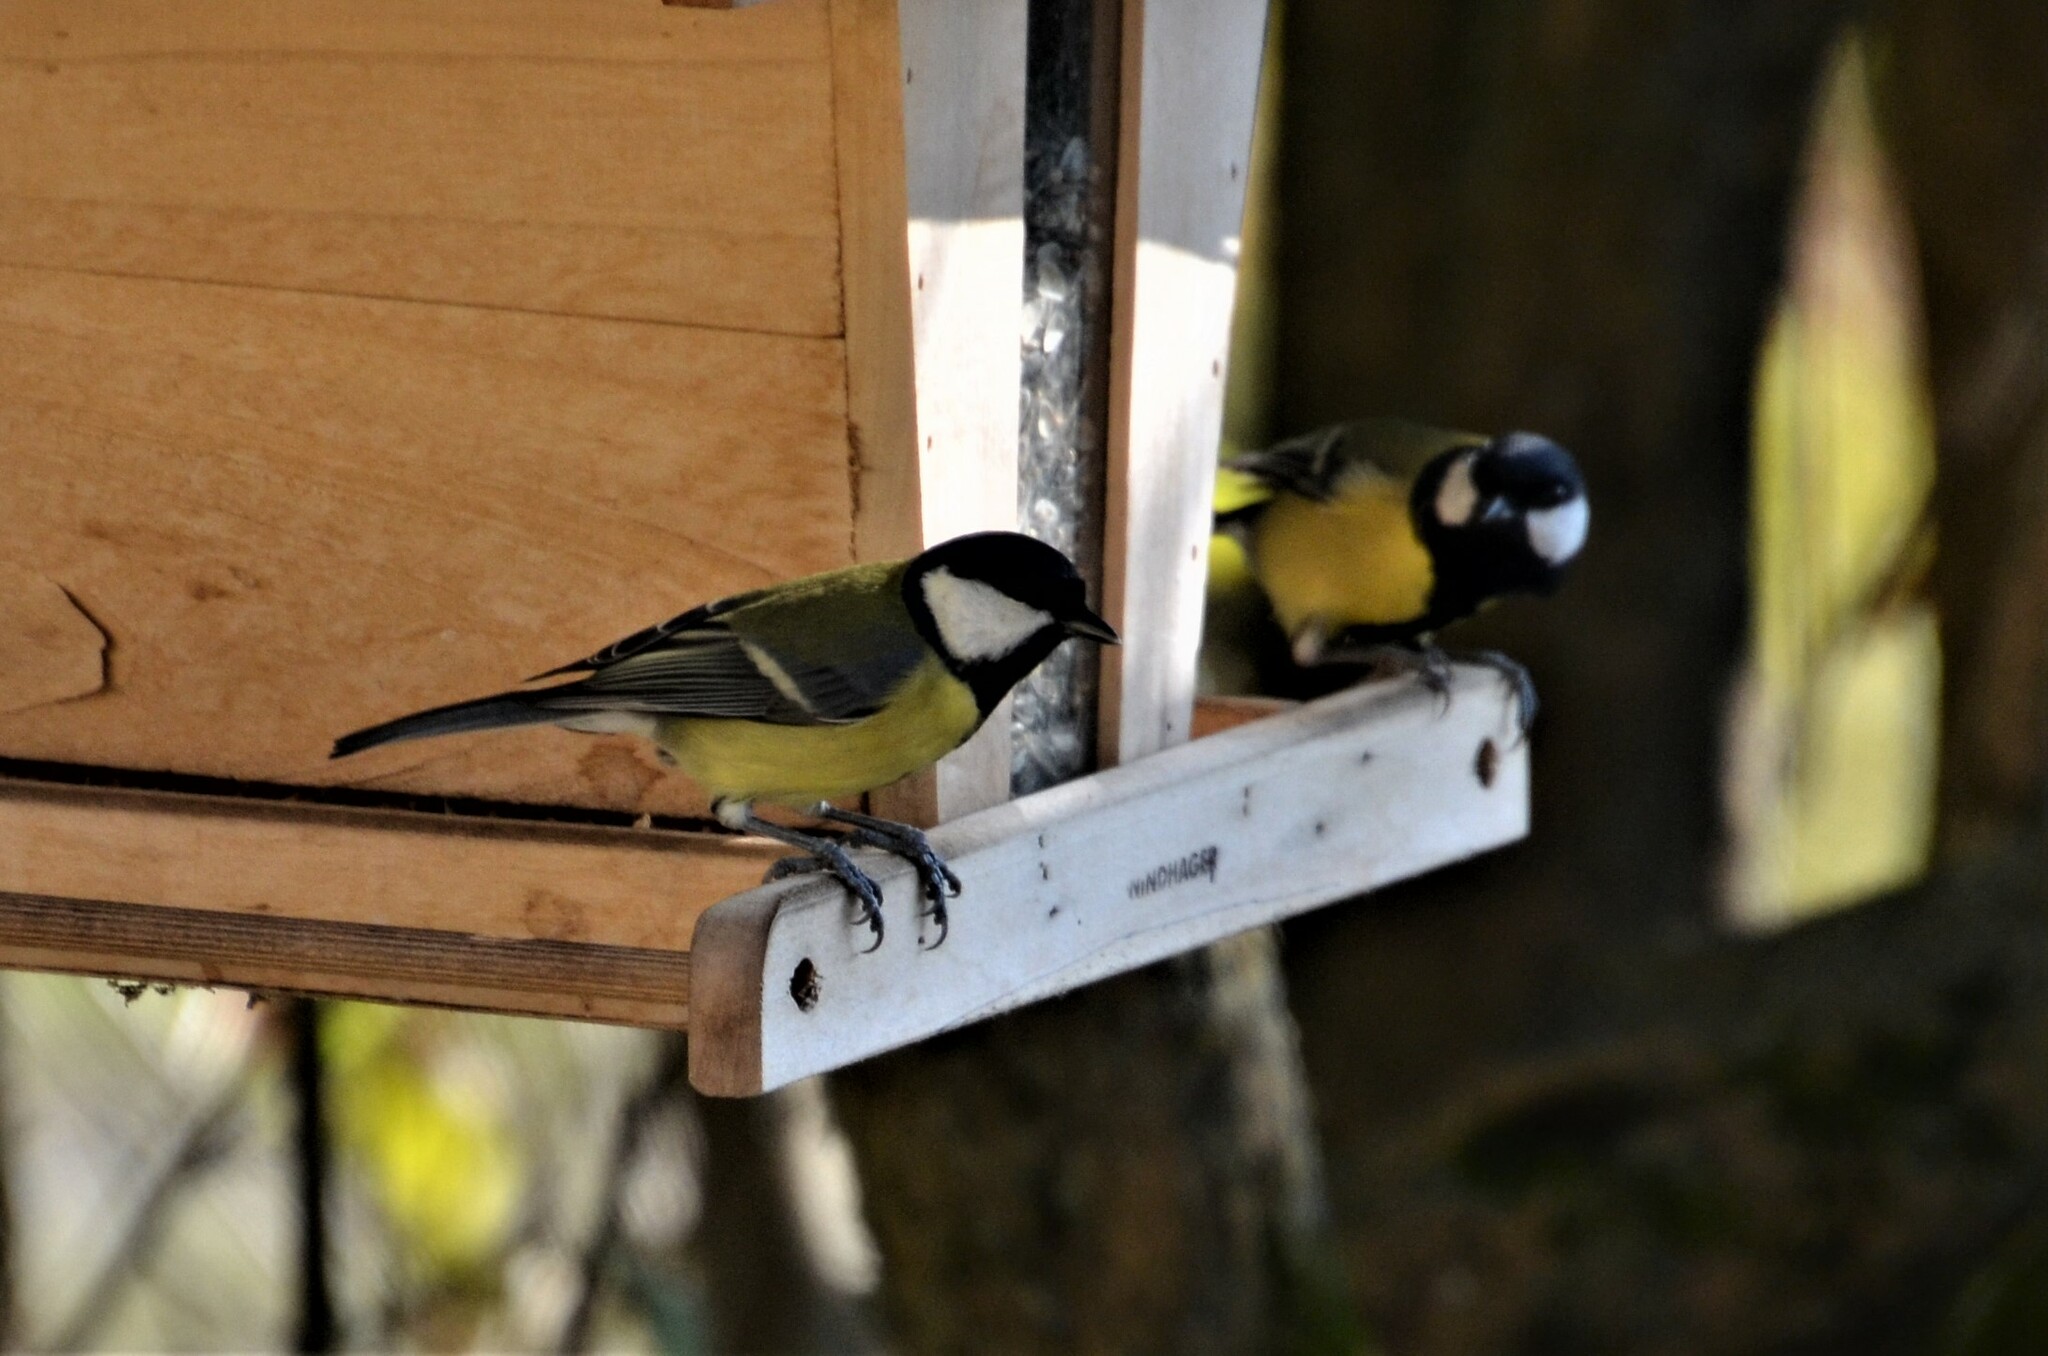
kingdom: Animalia
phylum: Chordata
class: Aves
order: Passeriformes
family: Paridae
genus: Parus
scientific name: Parus major
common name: Great tit
